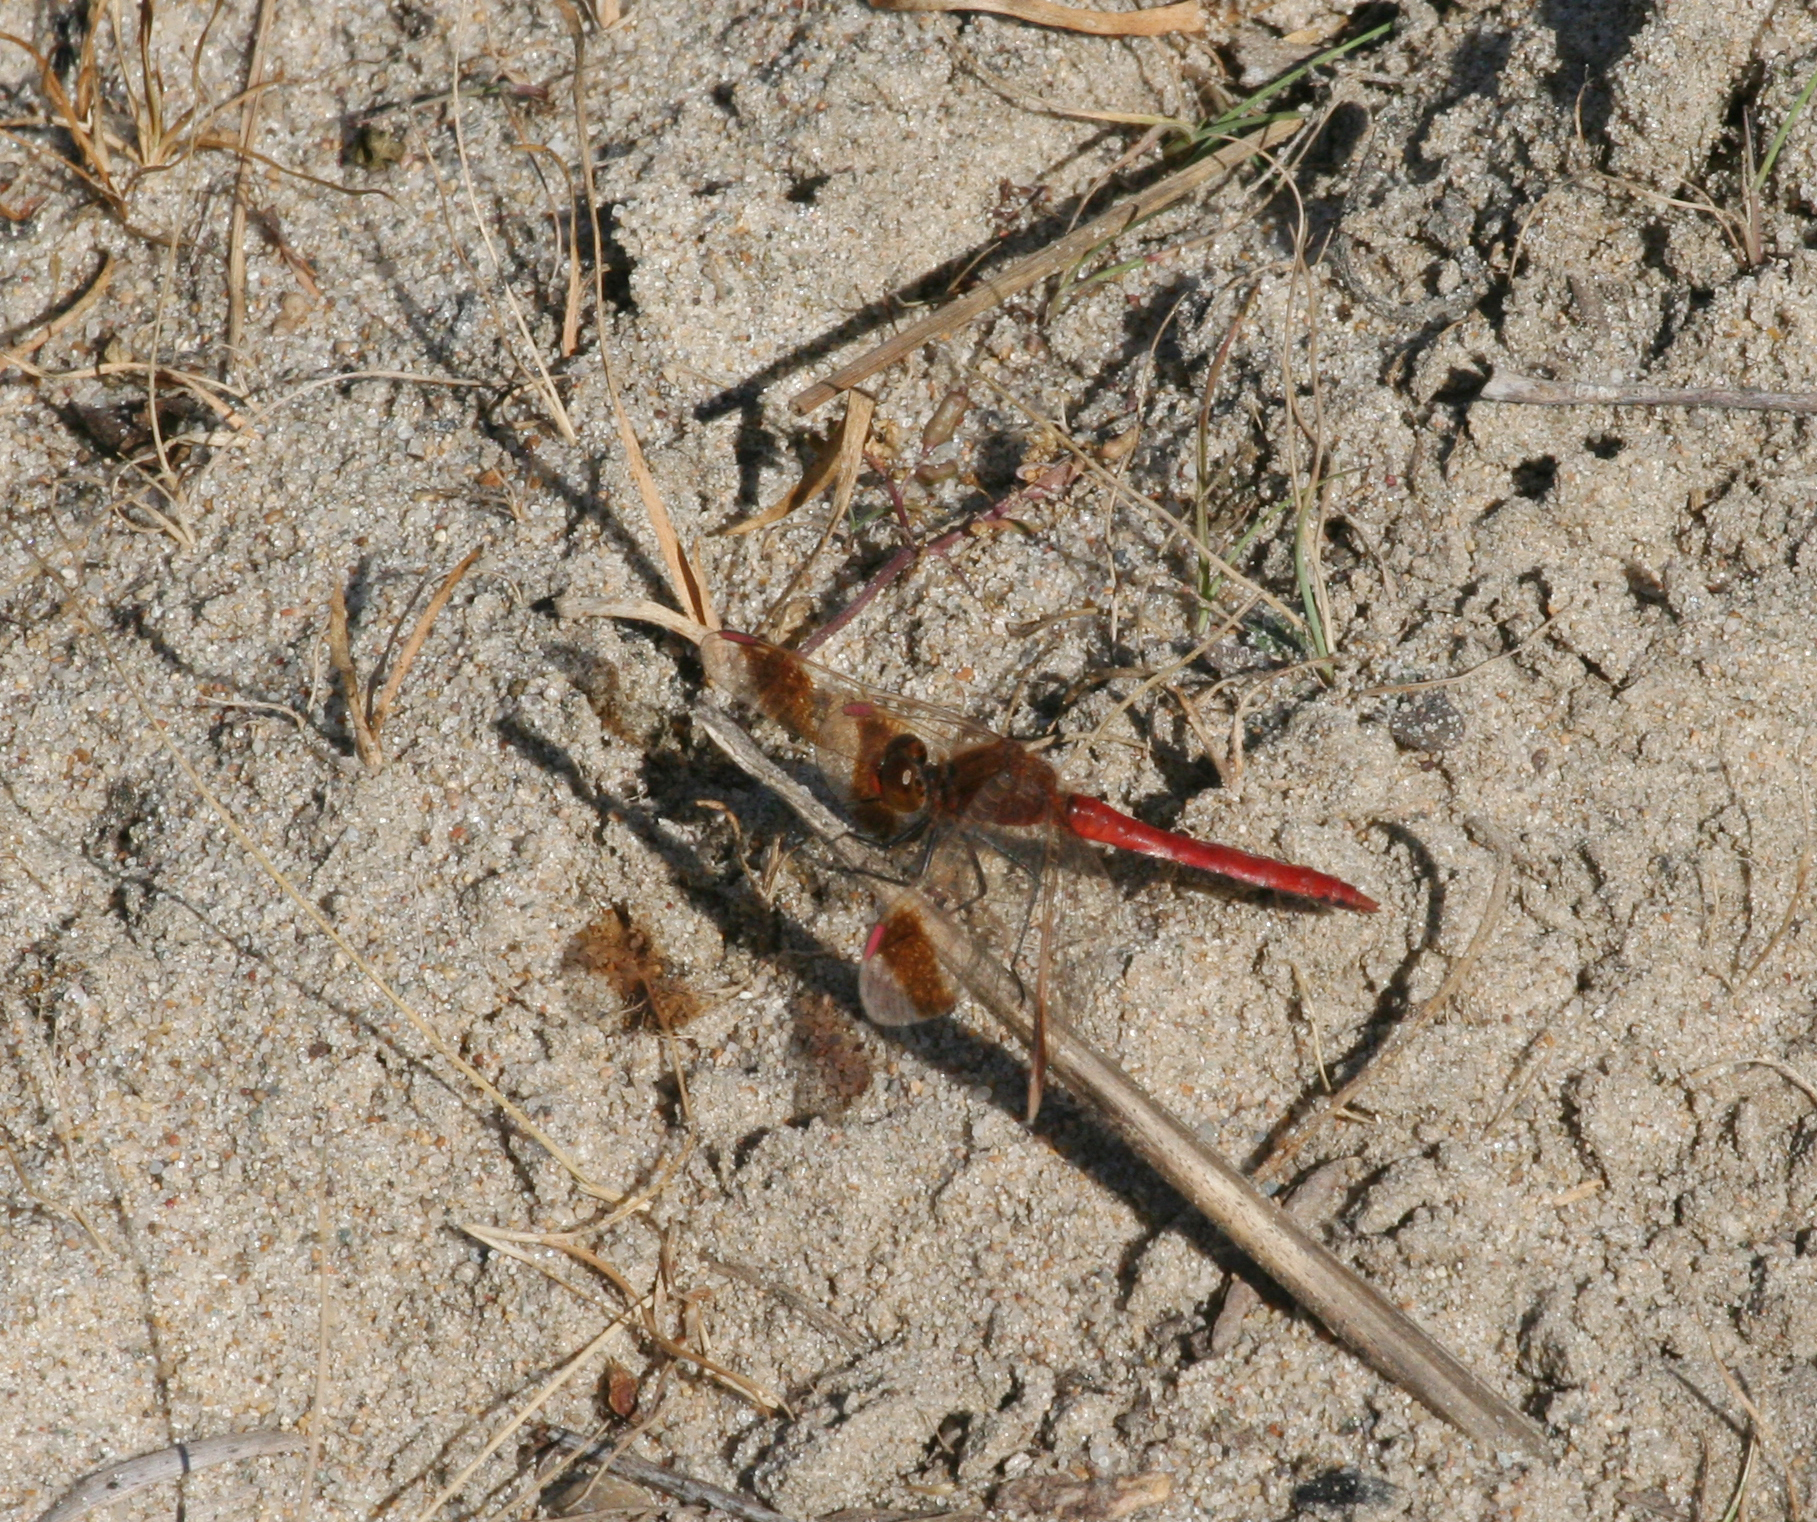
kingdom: Animalia
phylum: Arthropoda
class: Insecta
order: Odonata
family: Libellulidae
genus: Sympetrum
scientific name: Sympetrum pedemontanum
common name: Banded darter
